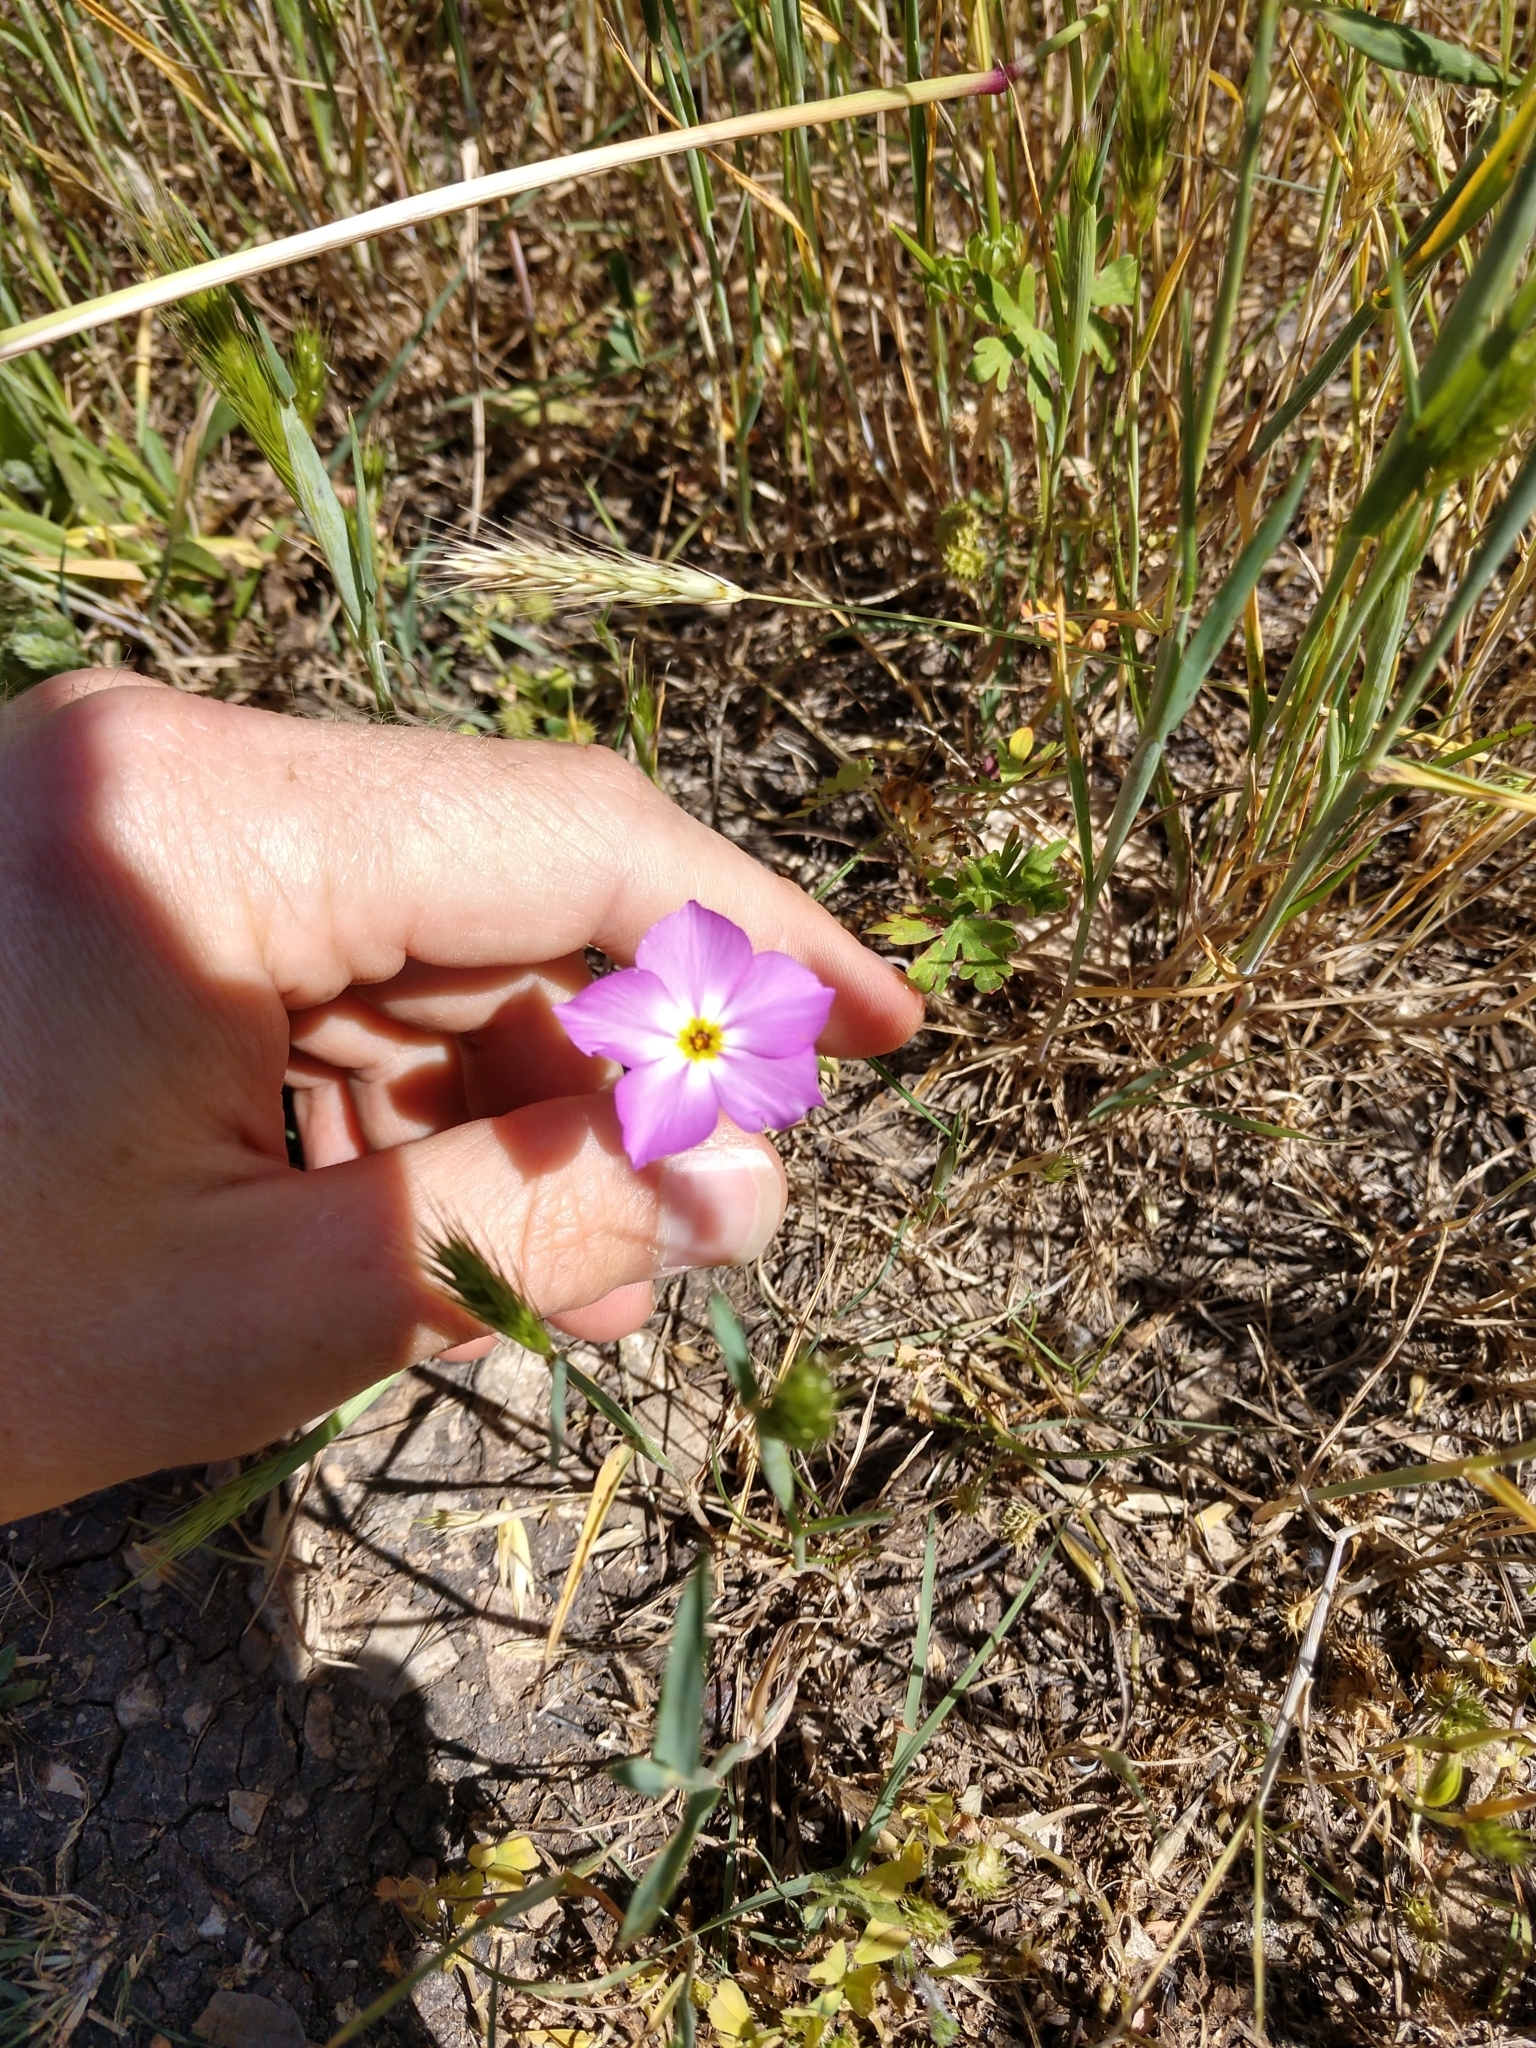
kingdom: Plantae
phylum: Tracheophyta
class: Magnoliopsida
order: Ericales
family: Polemoniaceae
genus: Phlox
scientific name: Phlox roemeriana
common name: Roemer's phlox
